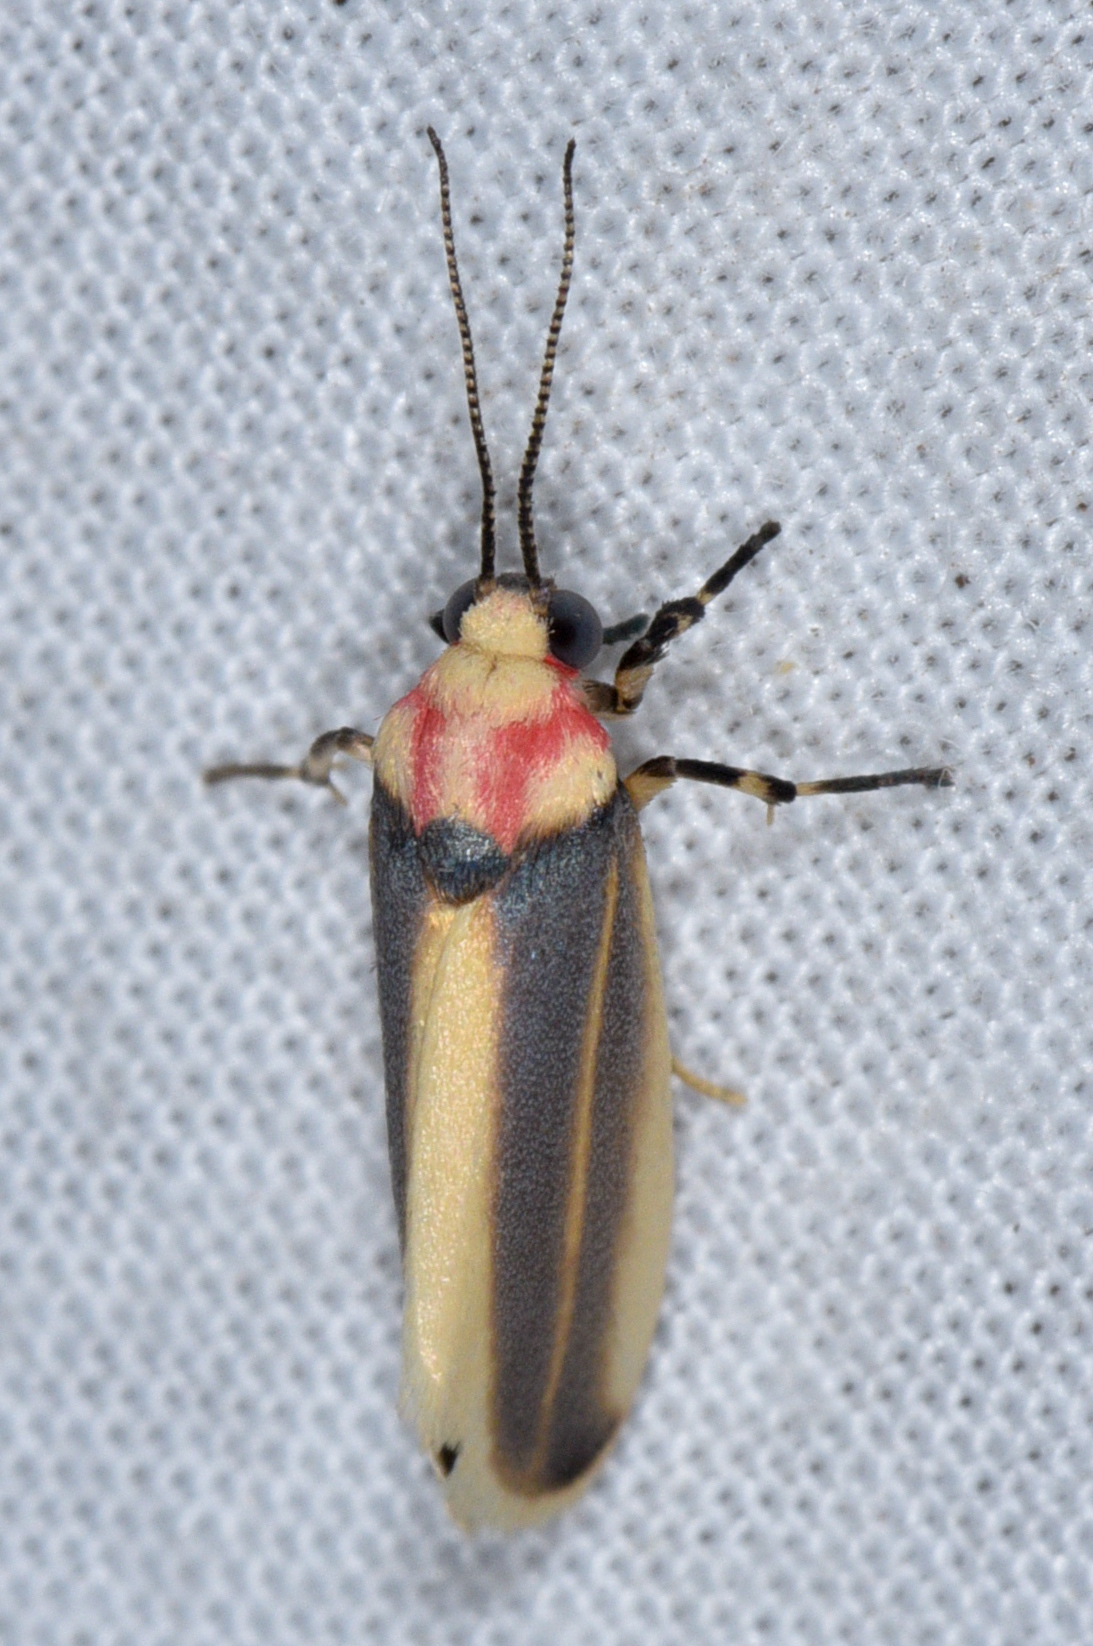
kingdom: Animalia
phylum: Arthropoda
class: Insecta
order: Lepidoptera
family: Erebidae
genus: Rhabdatomis
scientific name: Rhabdatomis cora
